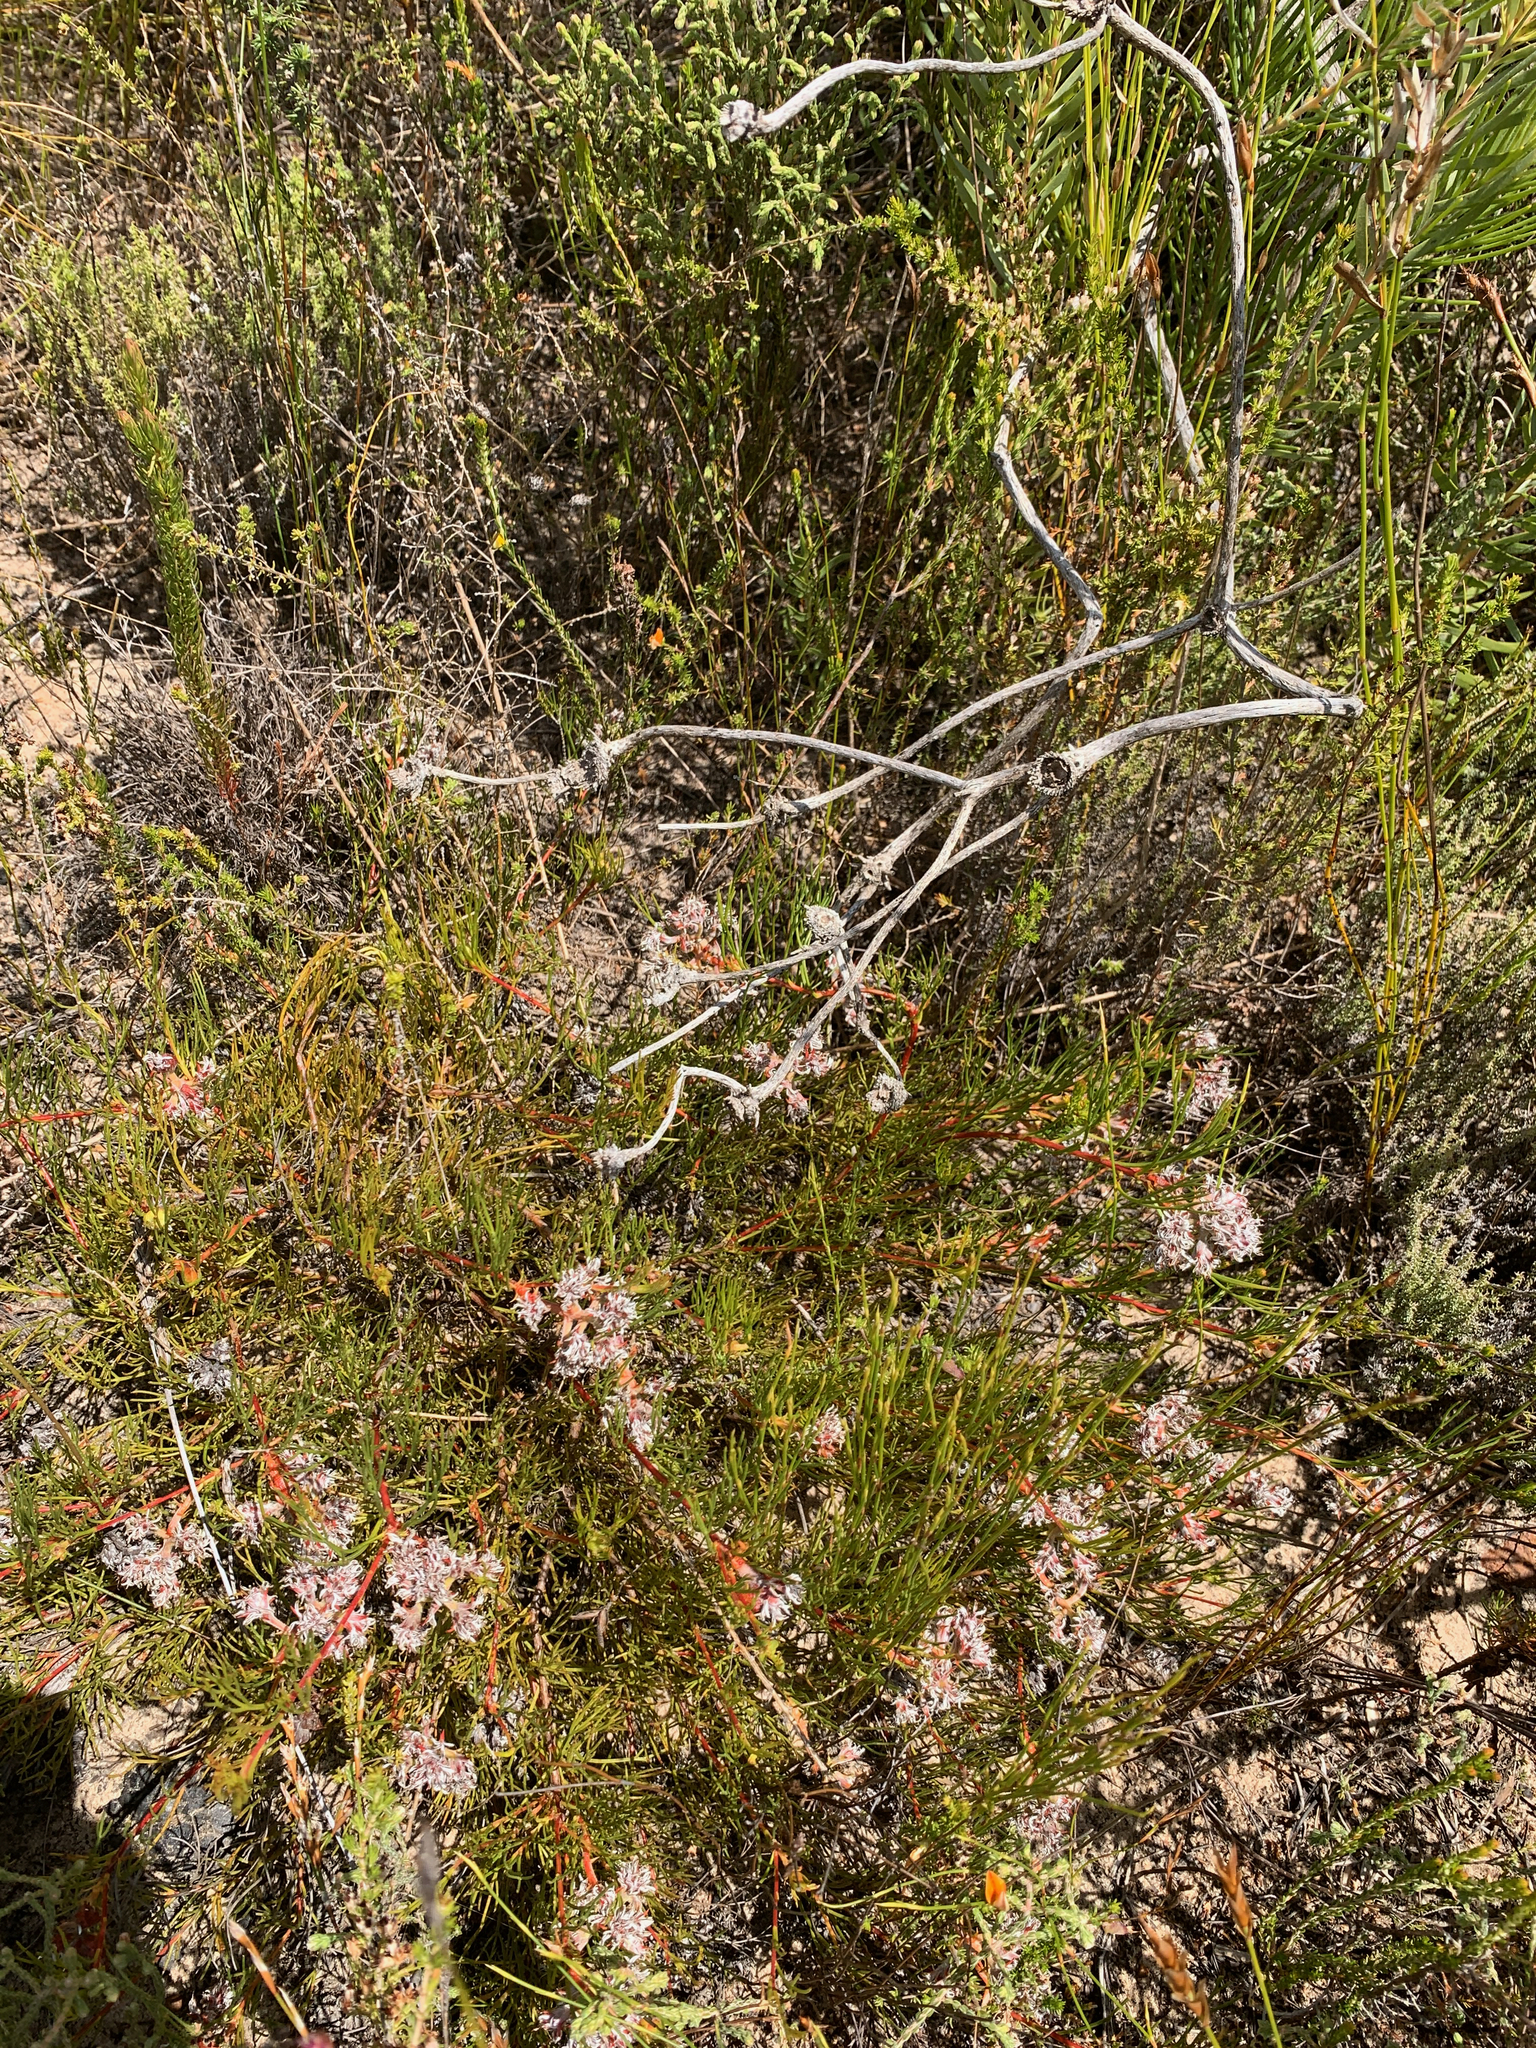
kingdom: Plantae
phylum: Tracheophyta
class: Magnoliopsida
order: Proteales
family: Proteaceae
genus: Serruria
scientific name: Serruria rubricaulis
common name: Red-stem spiderhead
